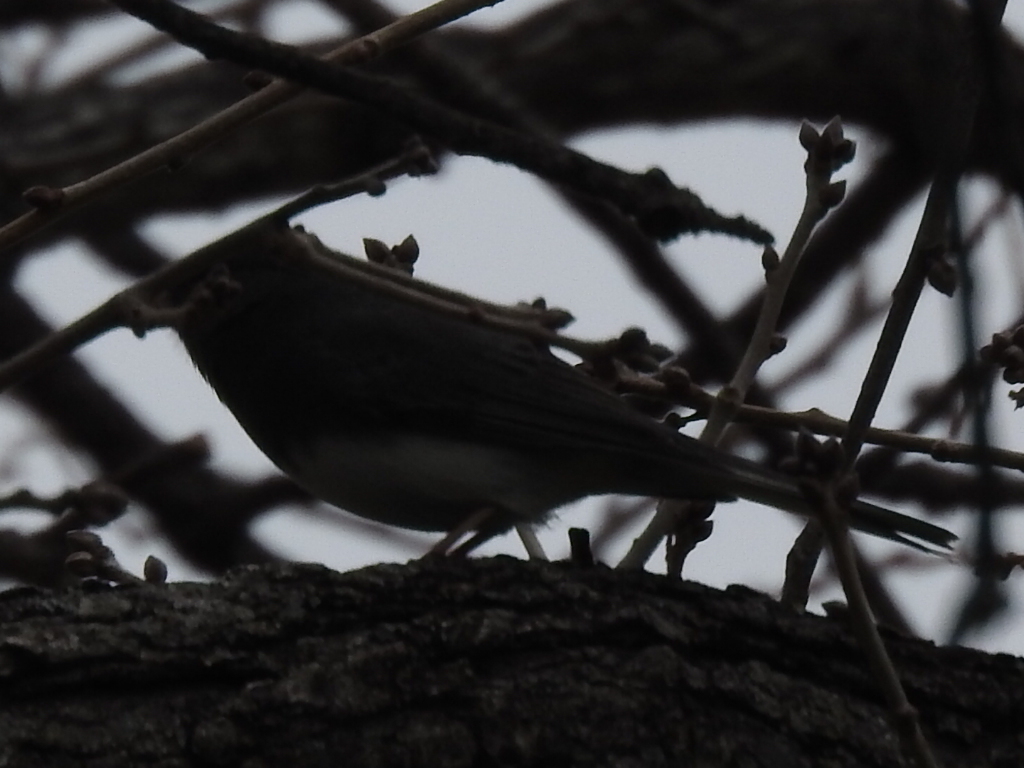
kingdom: Animalia
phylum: Chordata
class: Aves
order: Passeriformes
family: Passerellidae
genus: Junco
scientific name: Junco hyemalis
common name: Dark-eyed junco
